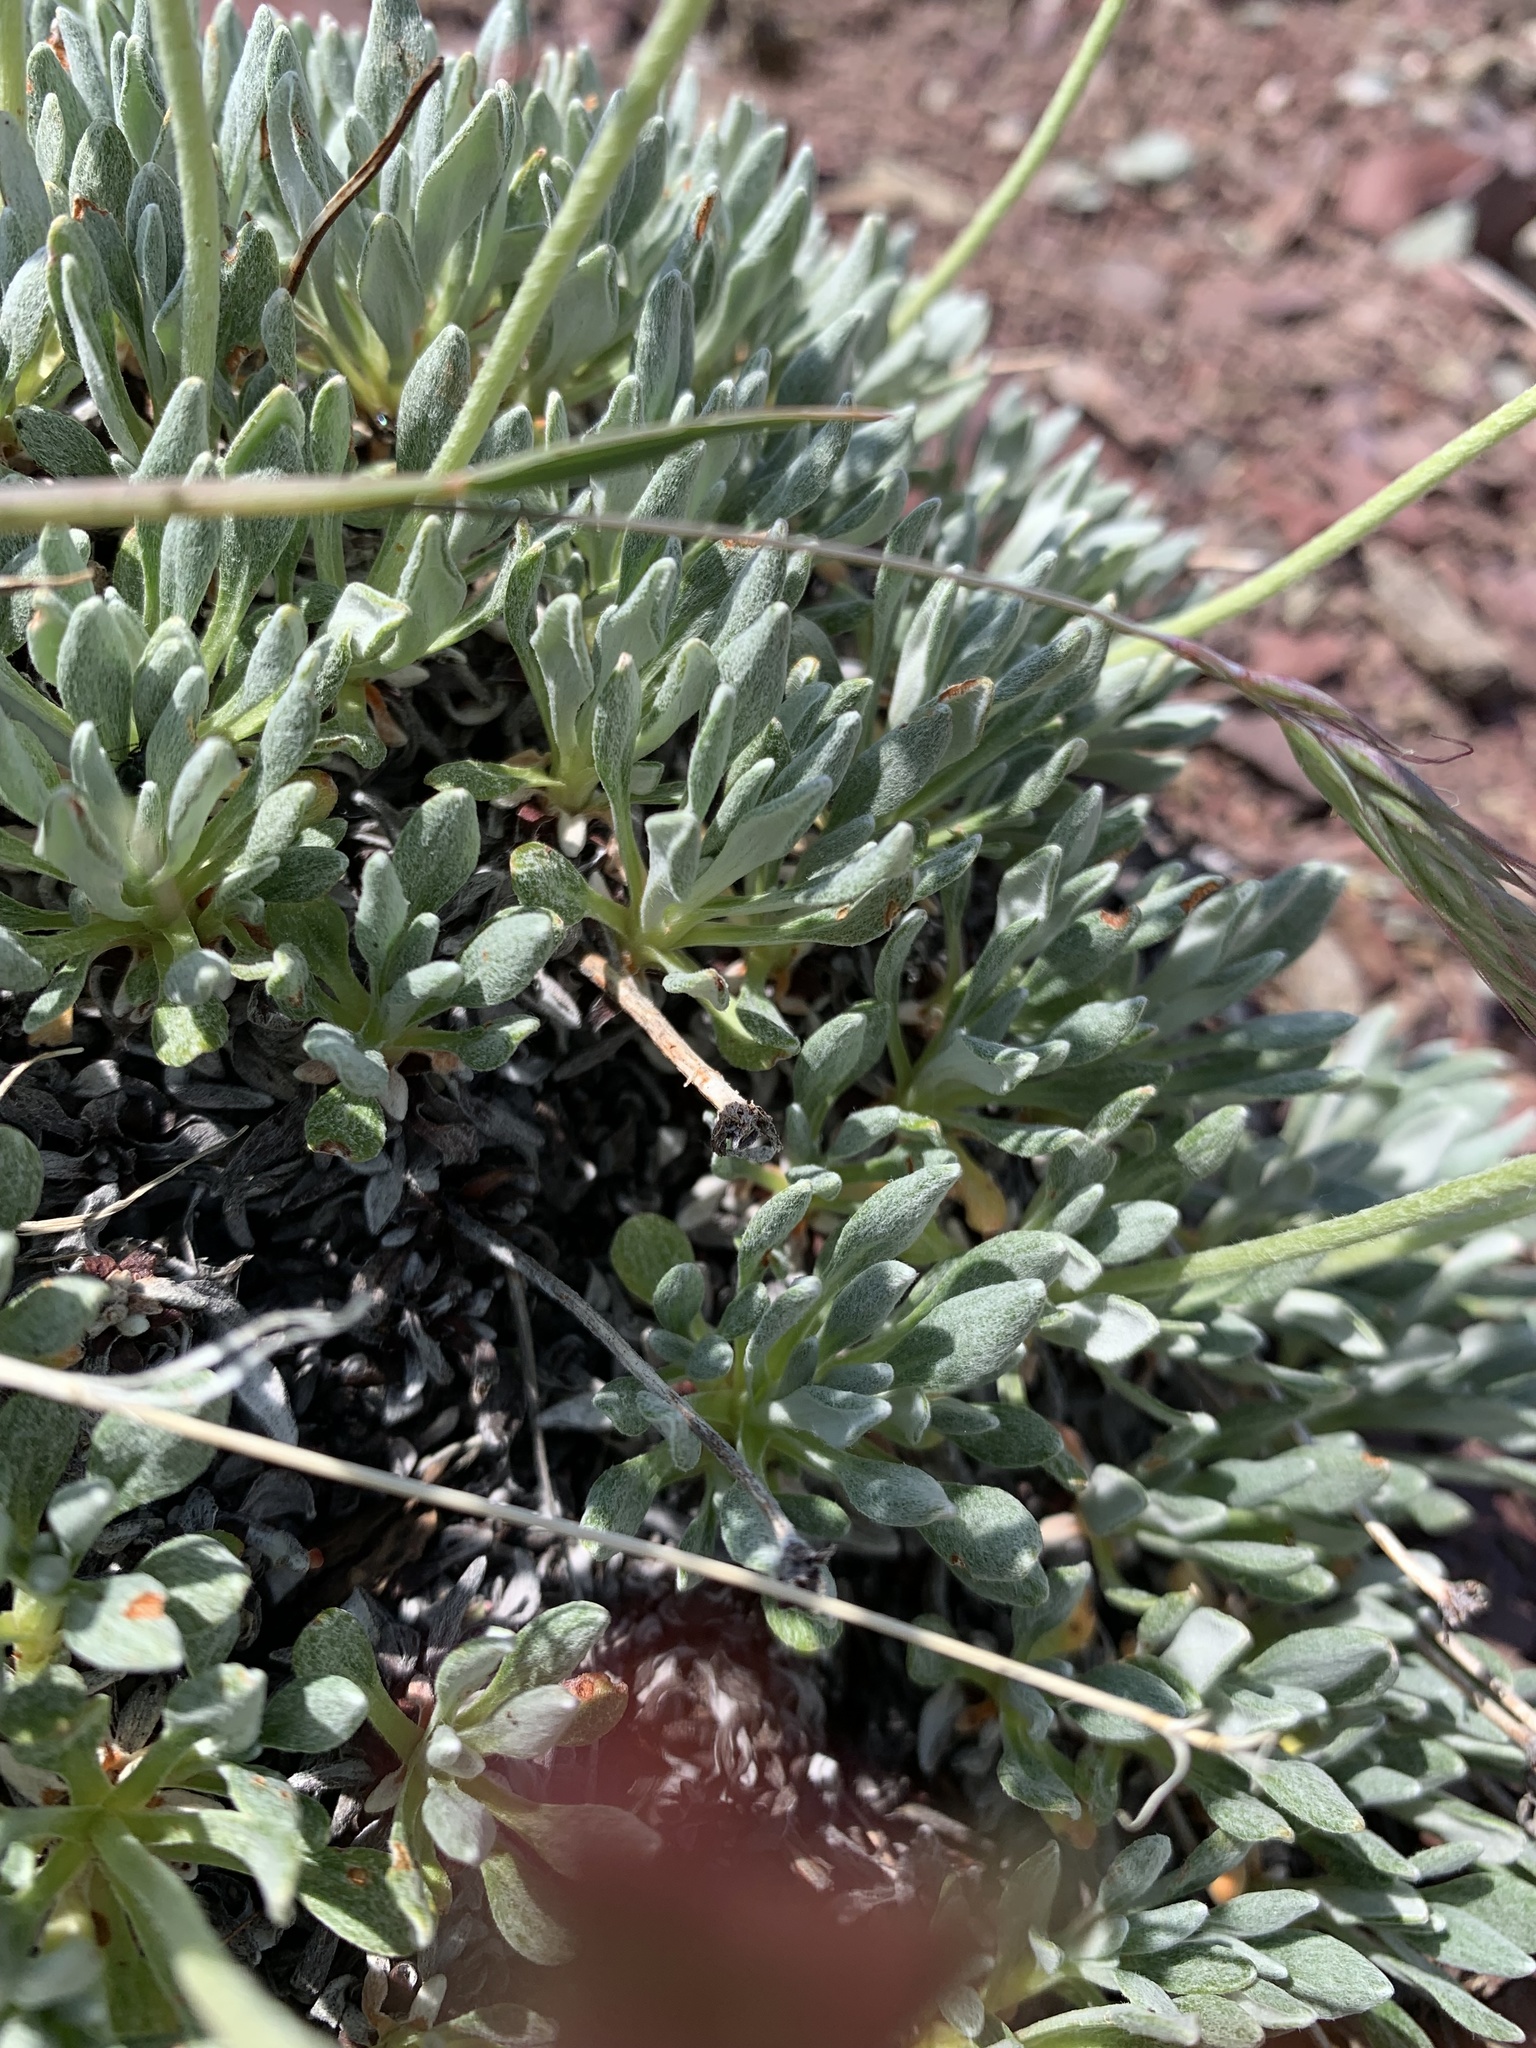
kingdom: Plantae
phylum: Tracheophyta
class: Magnoliopsida
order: Caryophyllales
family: Polygonaceae
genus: Eriogonum
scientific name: Eriogonum androsaceum
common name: Rock-jasmine wild buckwheat
